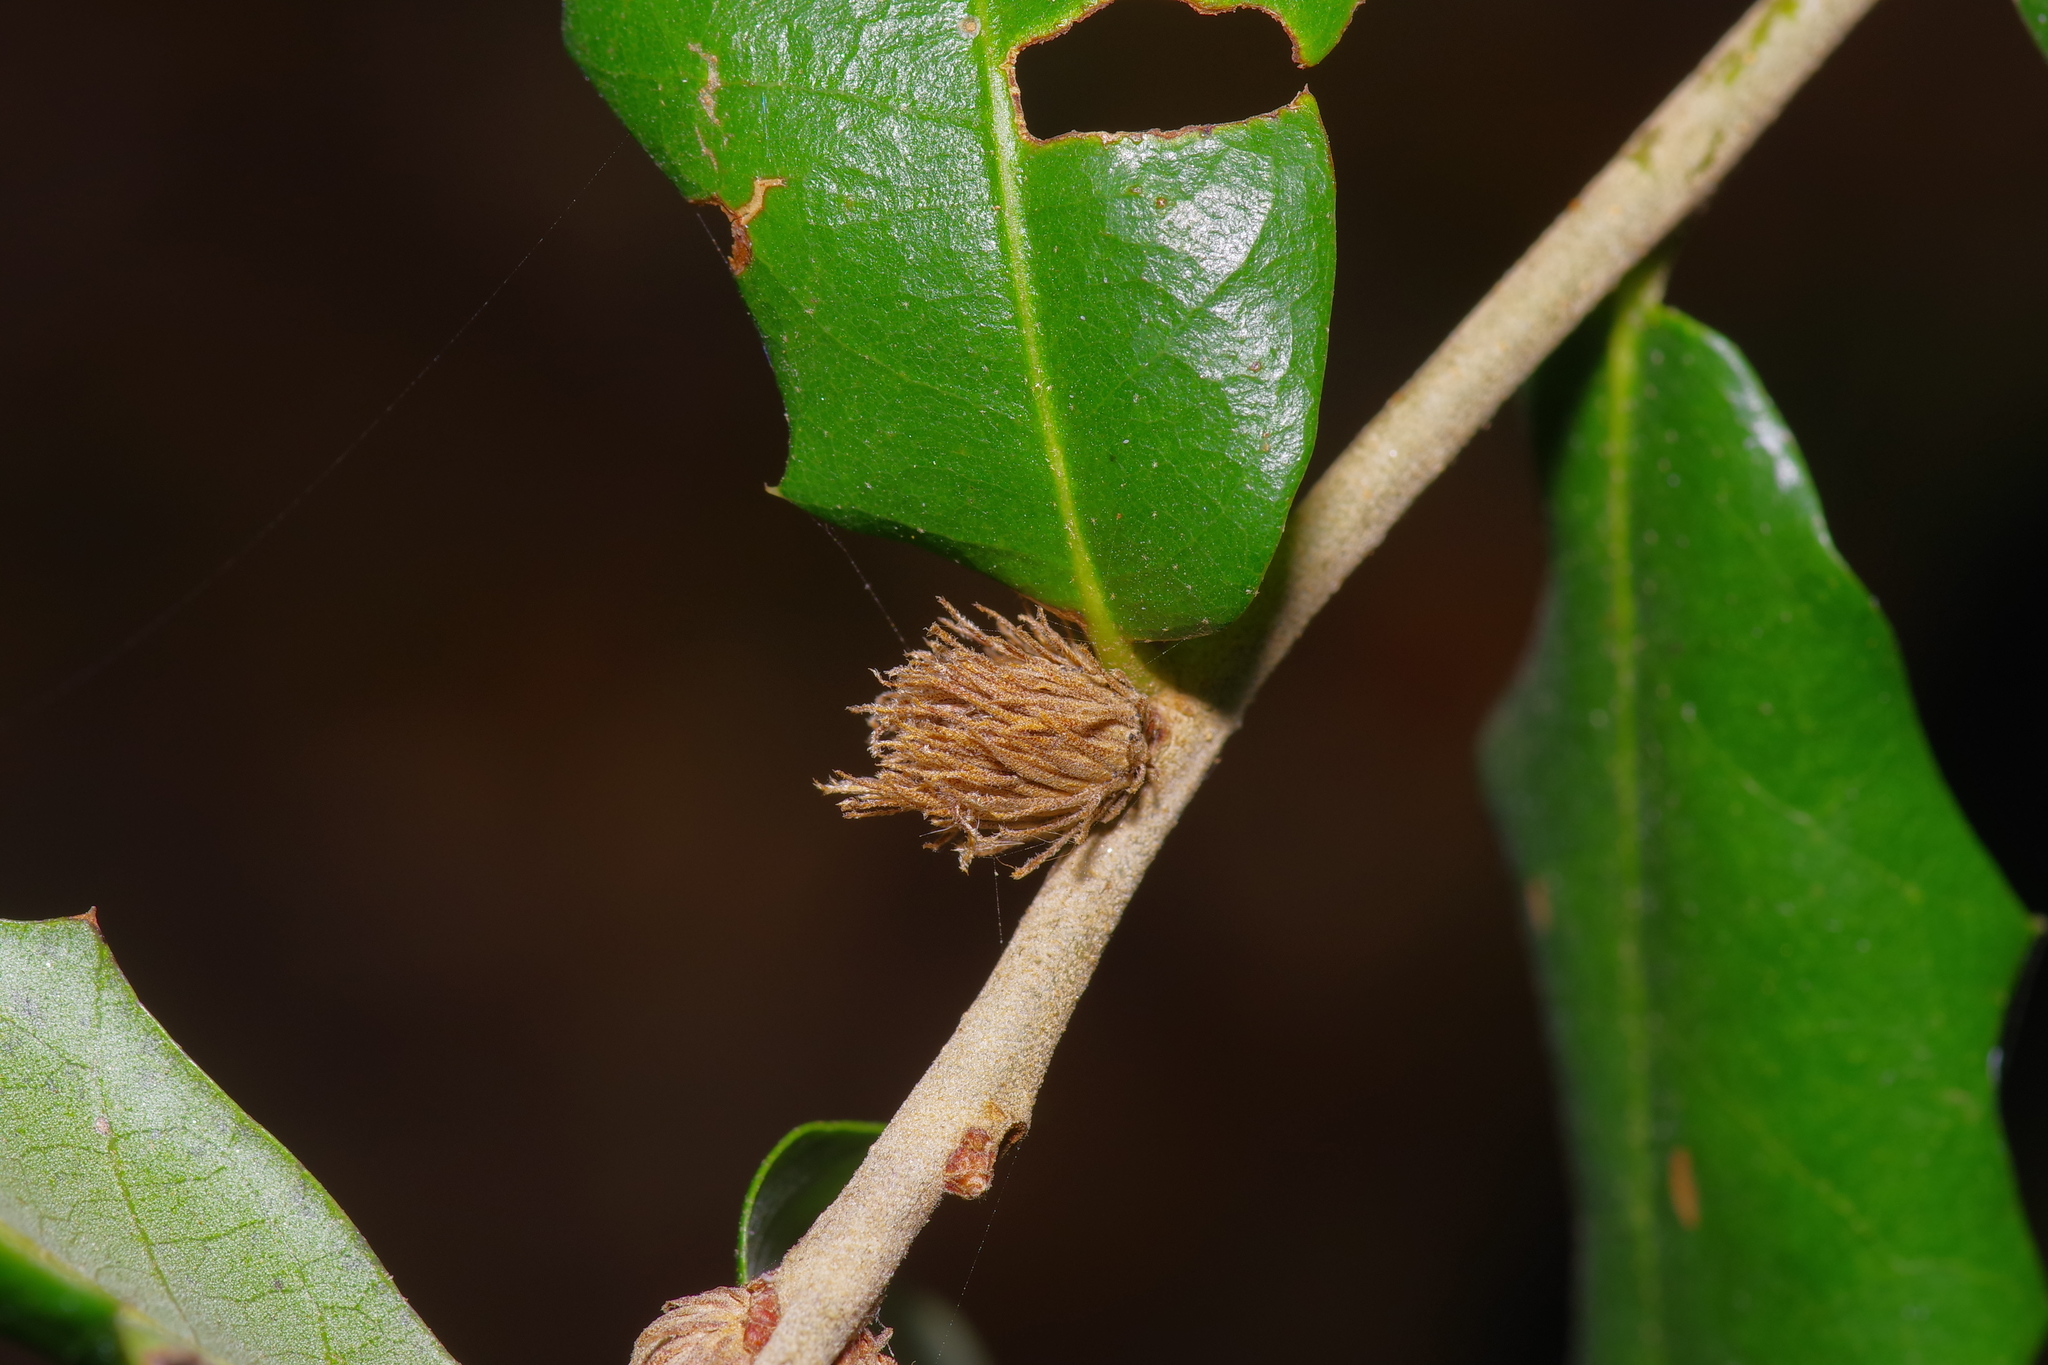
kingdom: Animalia
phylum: Arthropoda
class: Insecta
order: Hymenoptera
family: Cynipidae
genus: Andricus
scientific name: Andricus quercusfoliatus
